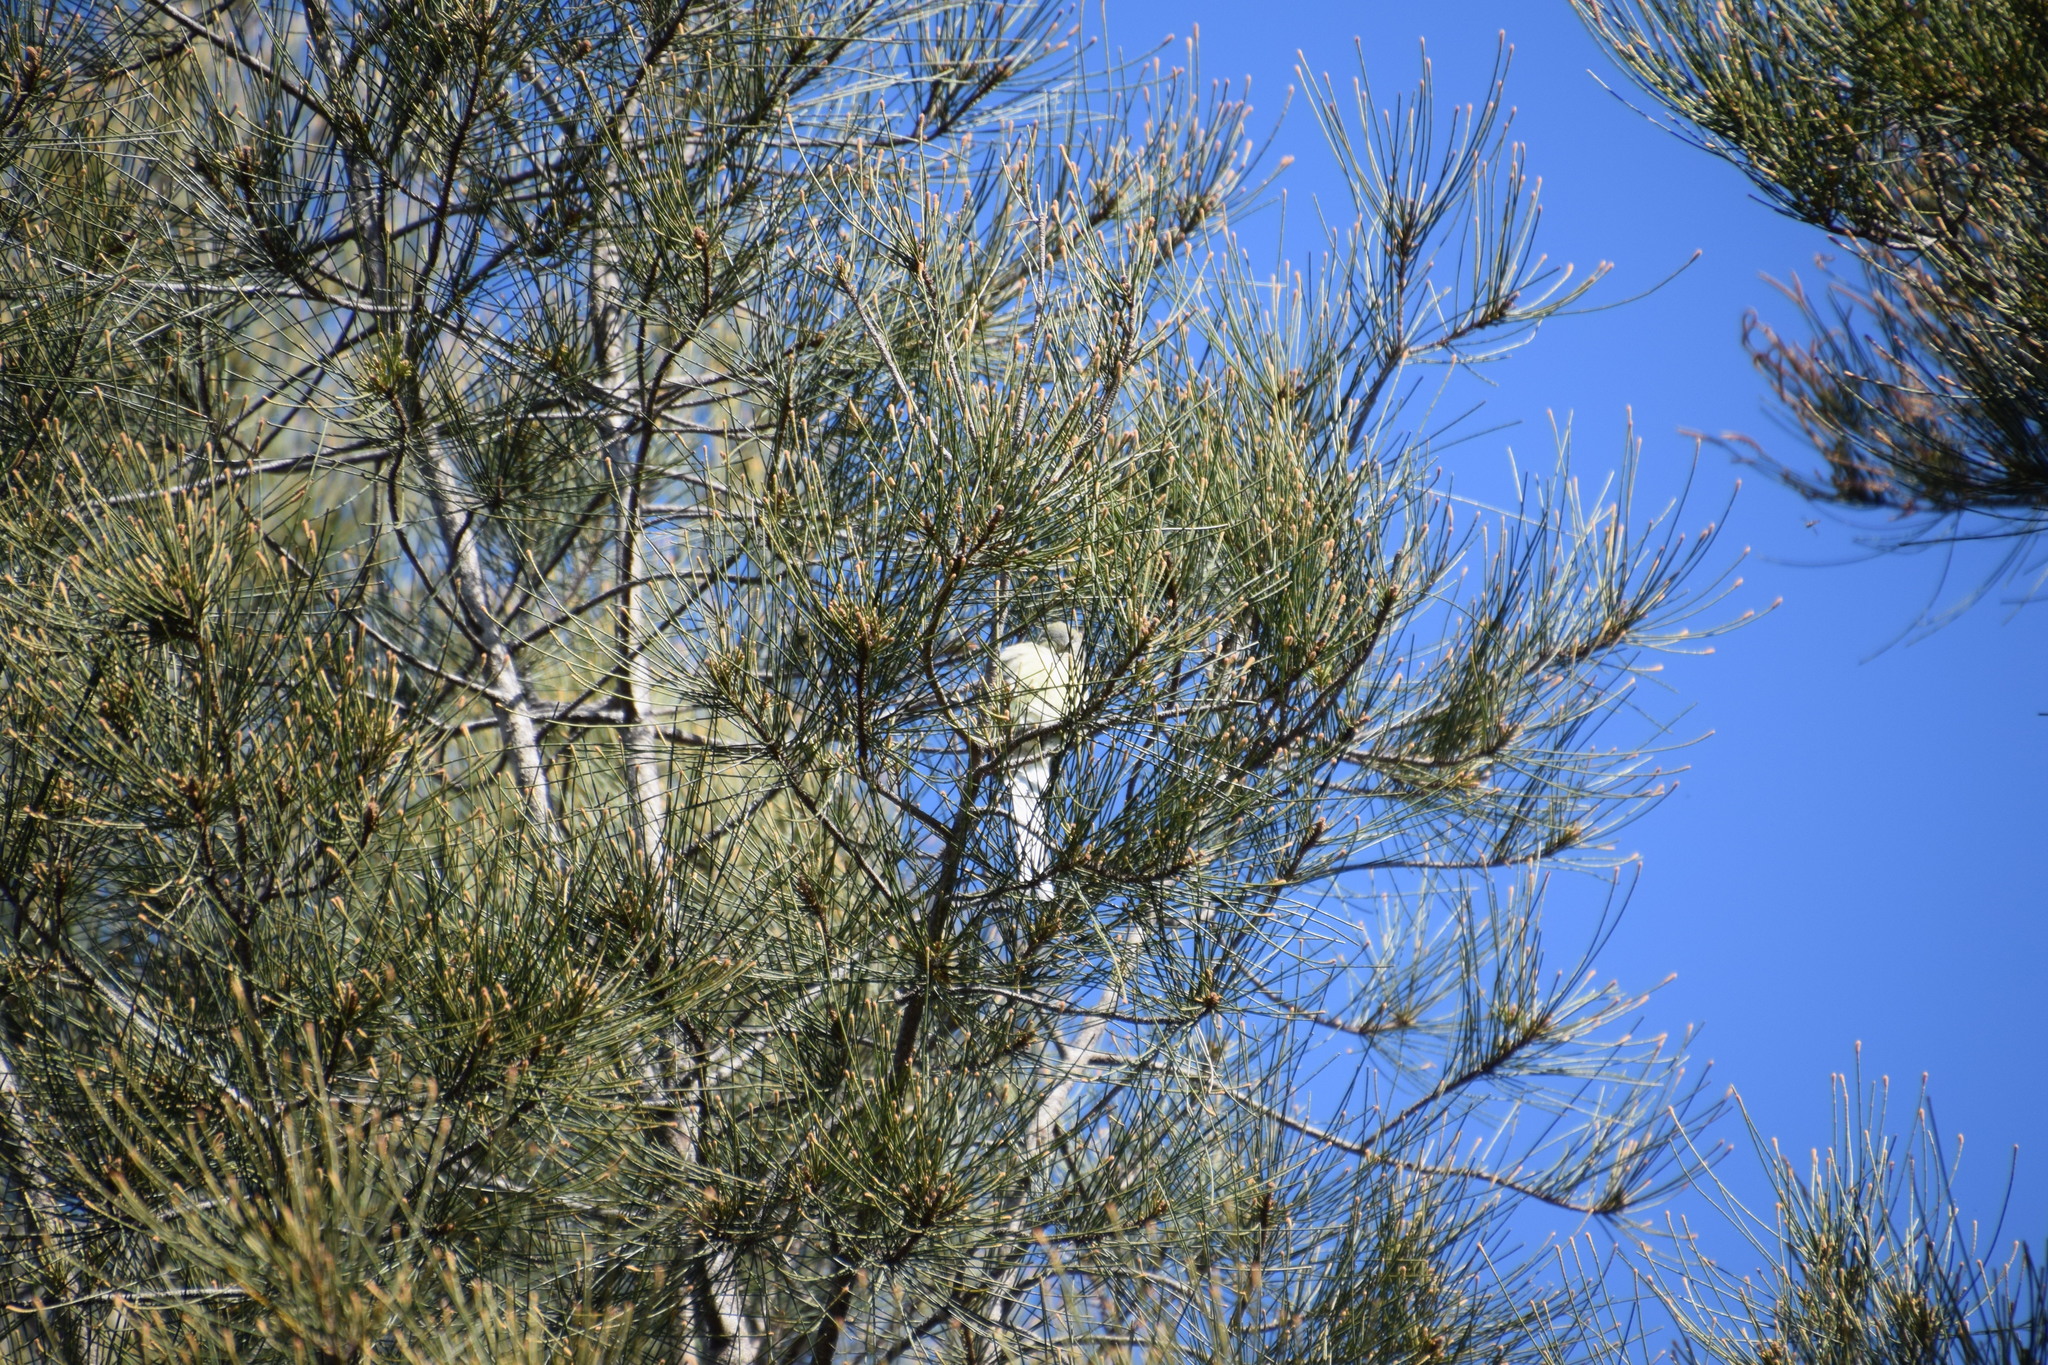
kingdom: Animalia
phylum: Chordata
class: Aves
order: Psittaciformes
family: Psittacidae
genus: Psephotus
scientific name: Psephotus haematonotus
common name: Red-rumped parrot
